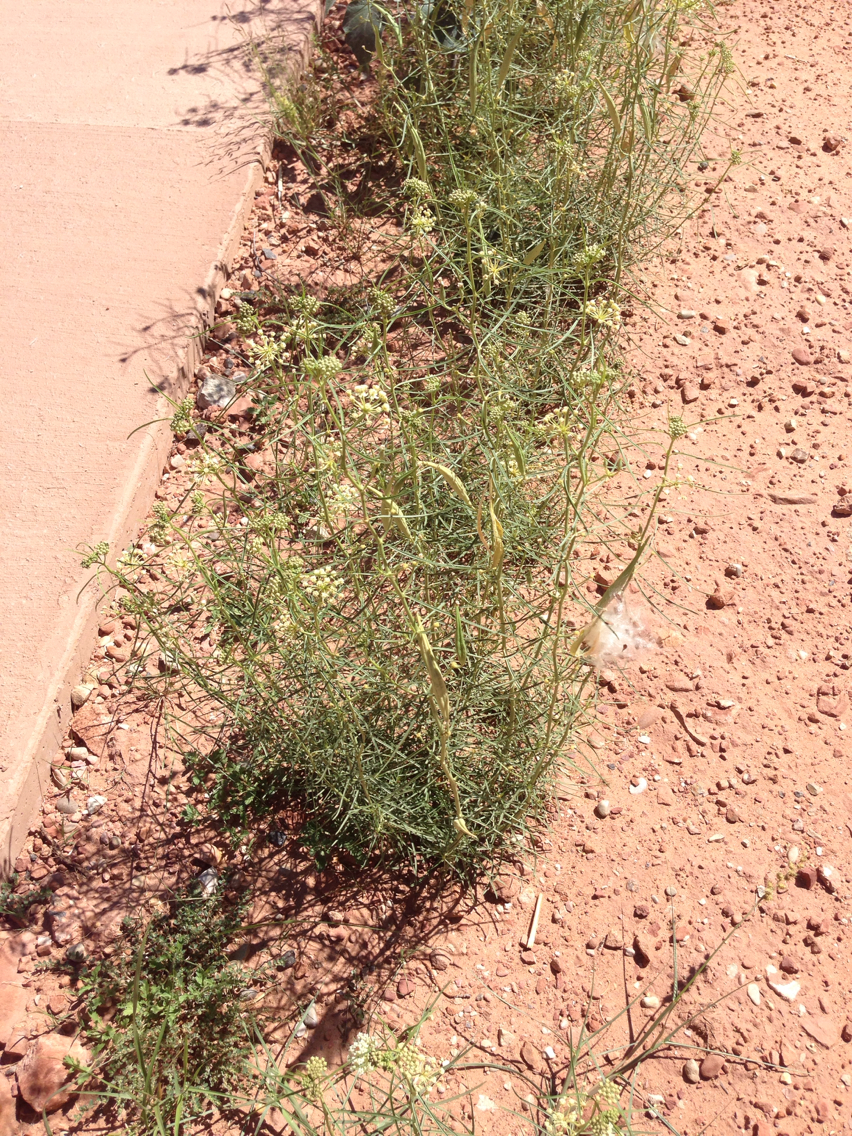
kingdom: Plantae
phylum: Tracheophyta
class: Magnoliopsida
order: Gentianales
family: Apocynaceae
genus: Asclepias
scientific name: Asclepias subverticillata
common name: Horsetail milkweed
